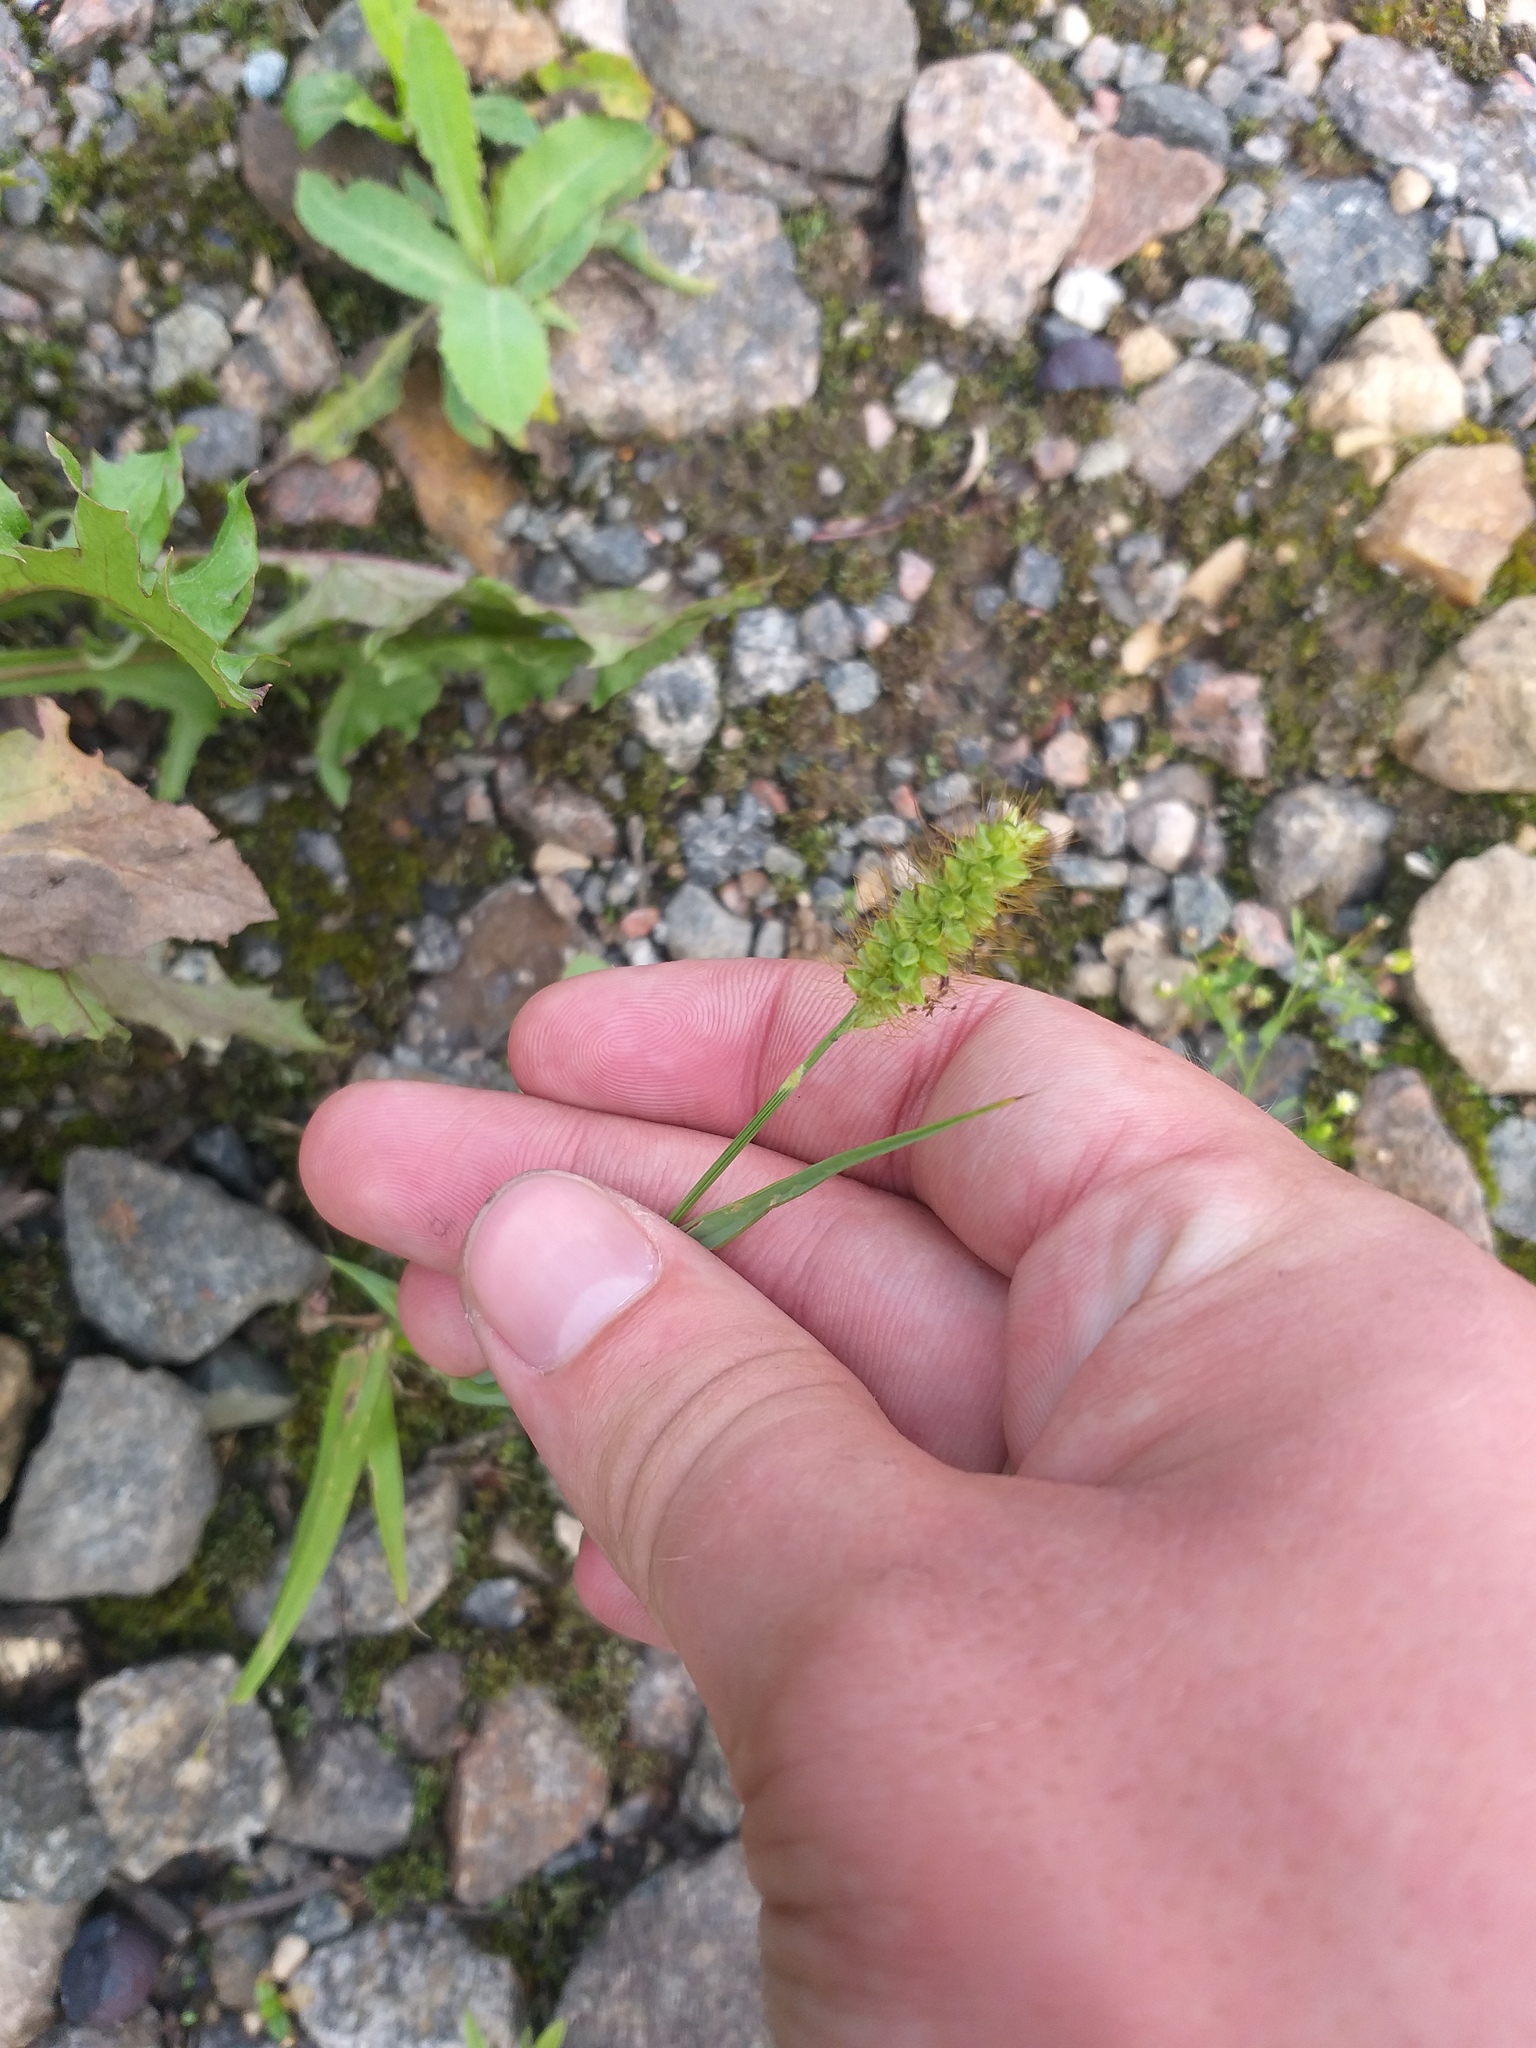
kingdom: Plantae
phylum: Tracheophyta
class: Liliopsida
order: Poales
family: Poaceae
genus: Setaria
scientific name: Setaria pumila
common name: Yellow bristle-grass
